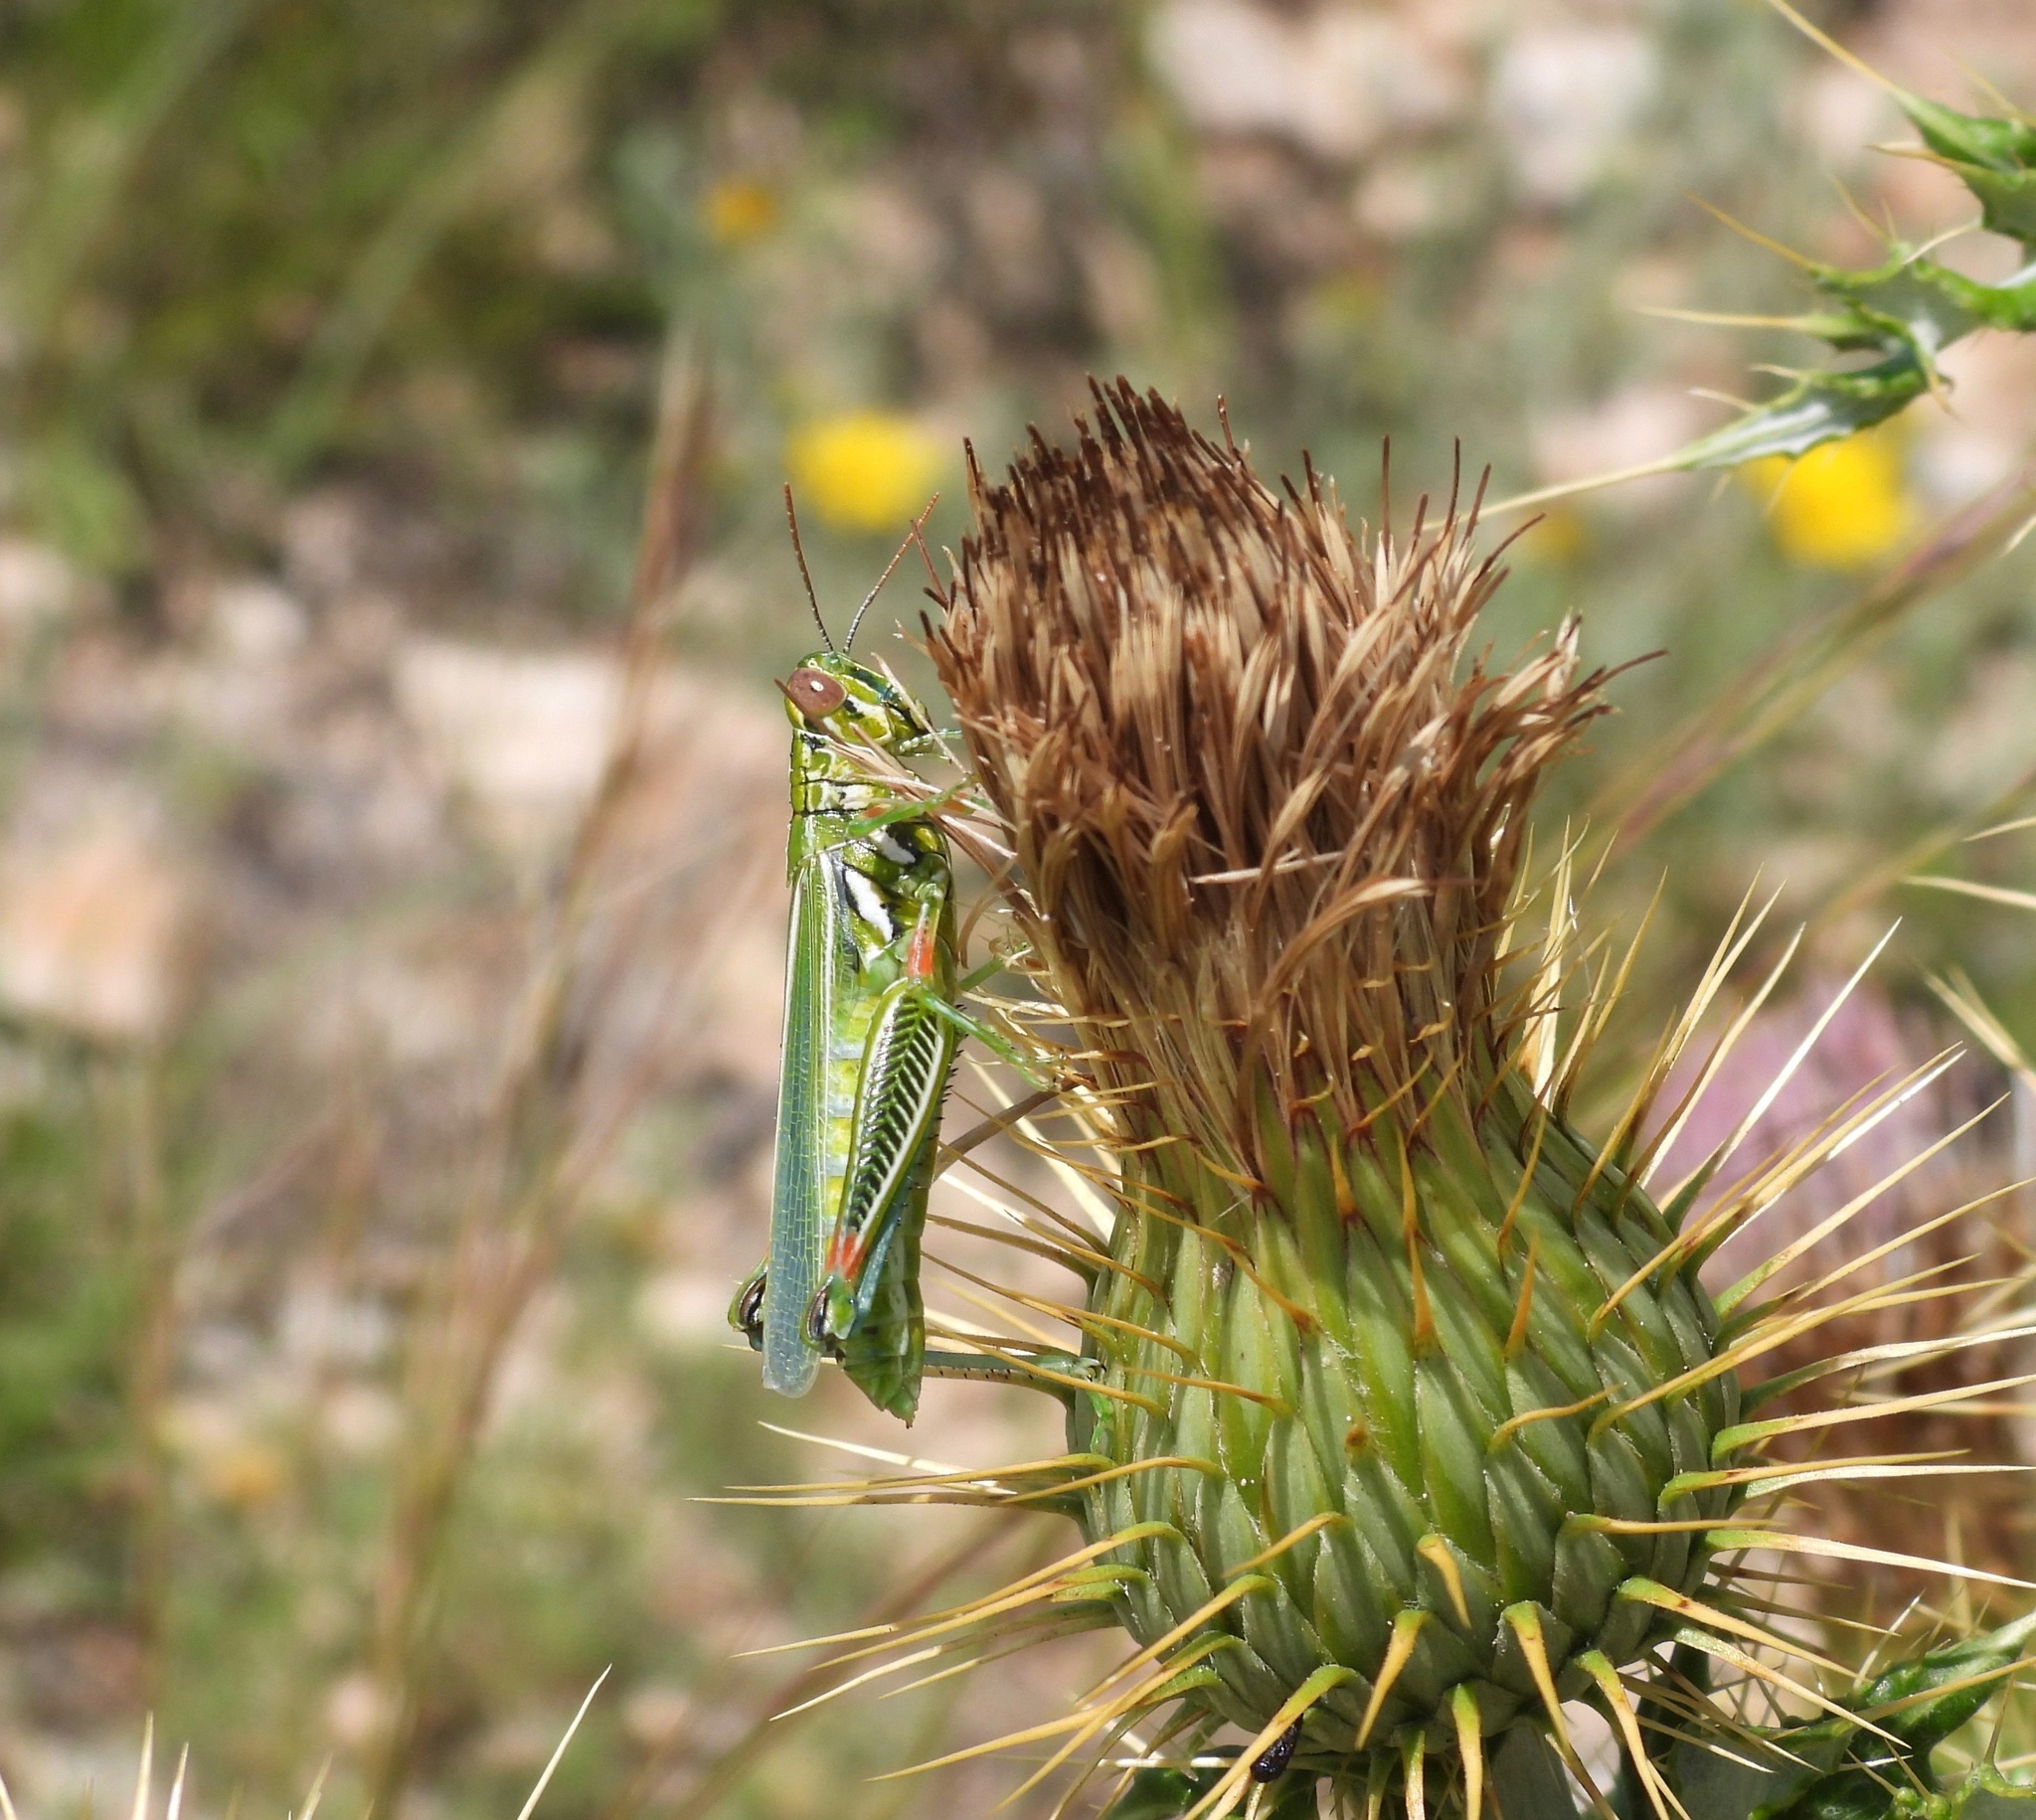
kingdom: Animalia
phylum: Arthropoda
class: Insecta
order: Orthoptera
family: Acrididae
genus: Hesperotettix
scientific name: Hesperotettix viridis
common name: Meadow purple-striped grasshopper
